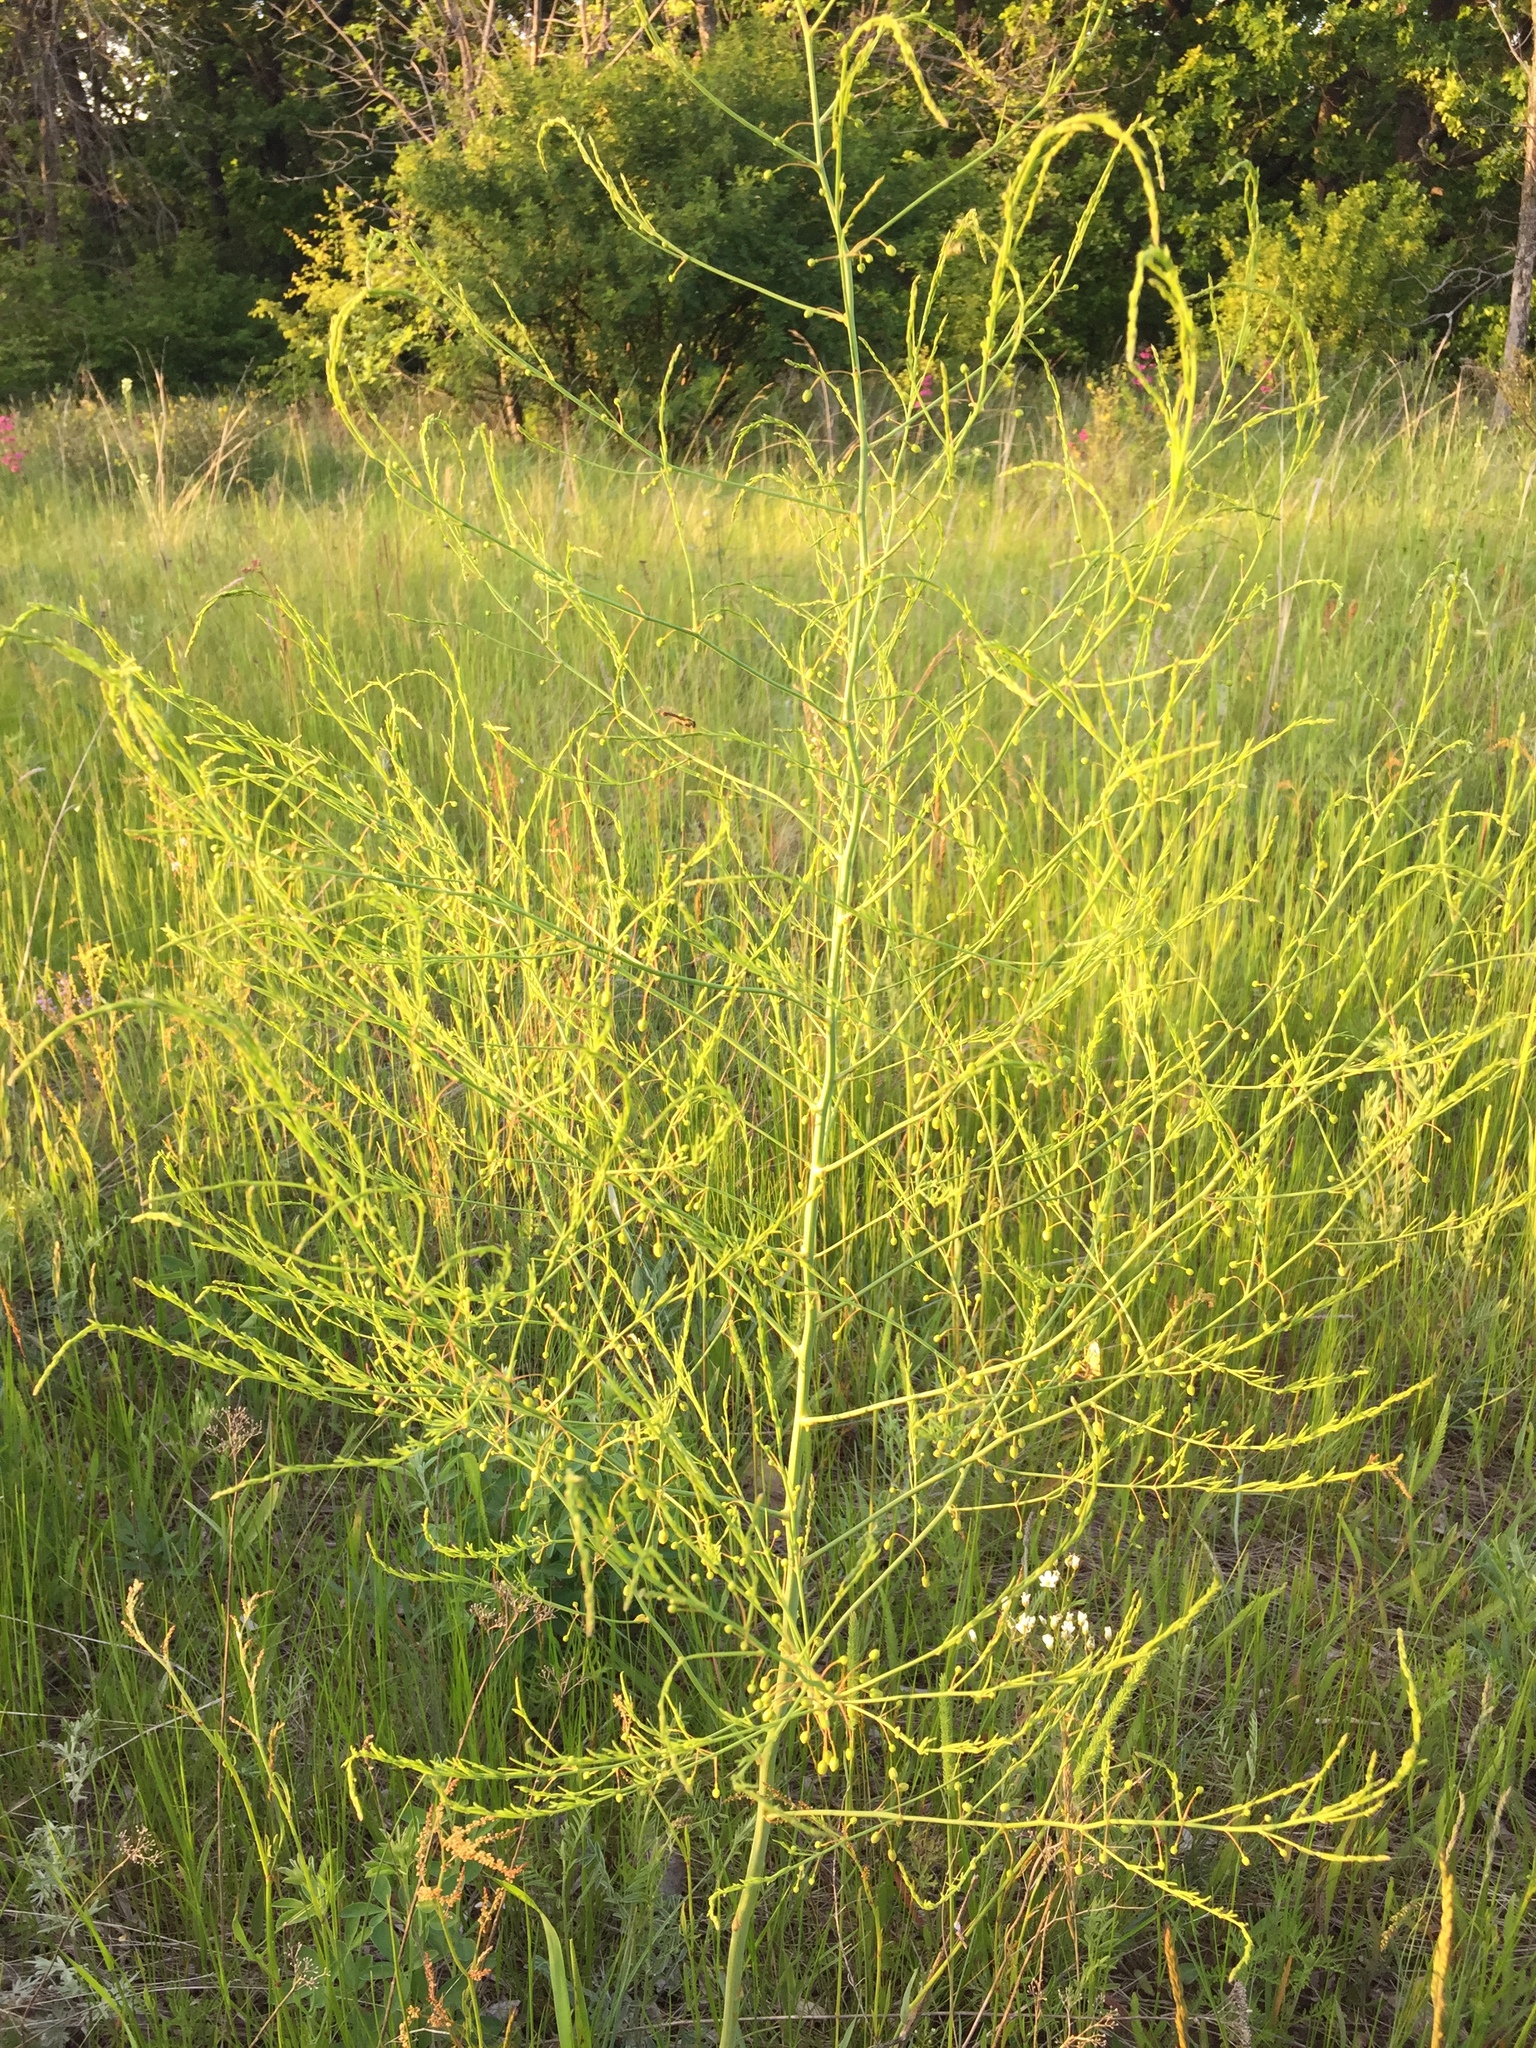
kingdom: Plantae
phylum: Tracheophyta
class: Liliopsida
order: Asparagales
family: Asparagaceae
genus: Asparagus
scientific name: Asparagus officinalis
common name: Garden asparagus
